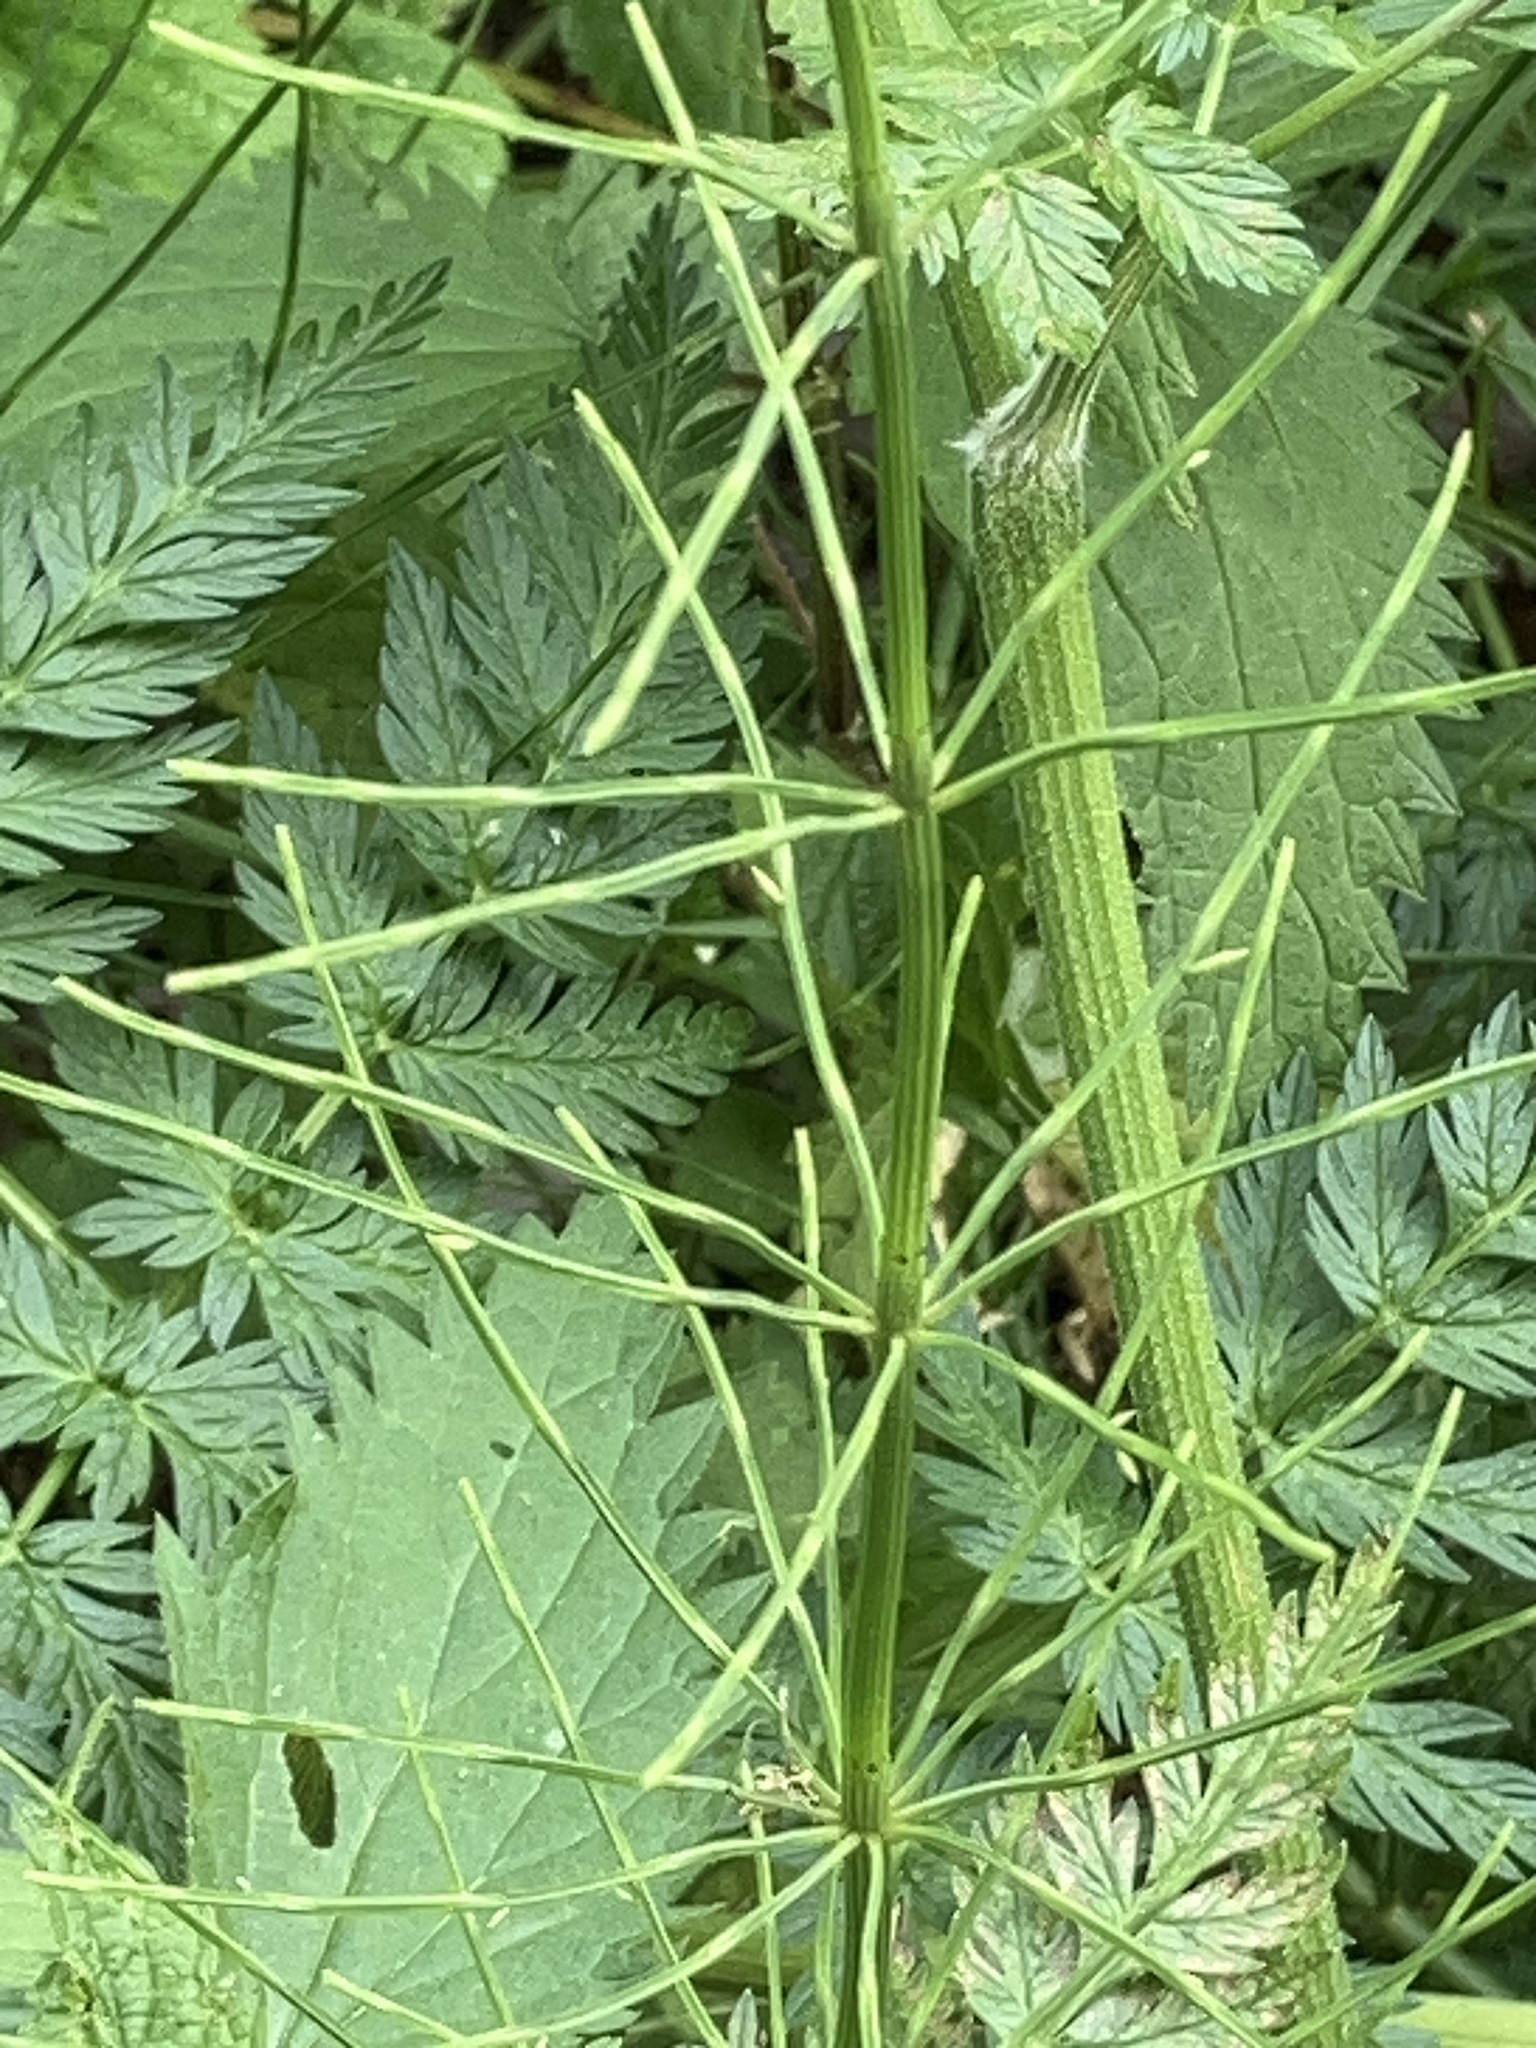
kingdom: Plantae
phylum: Tracheophyta
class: Polypodiopsida
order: Equisetales
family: Equisetaceae
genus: Equisetum
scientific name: Equisetum arvense
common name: Field horsetail
